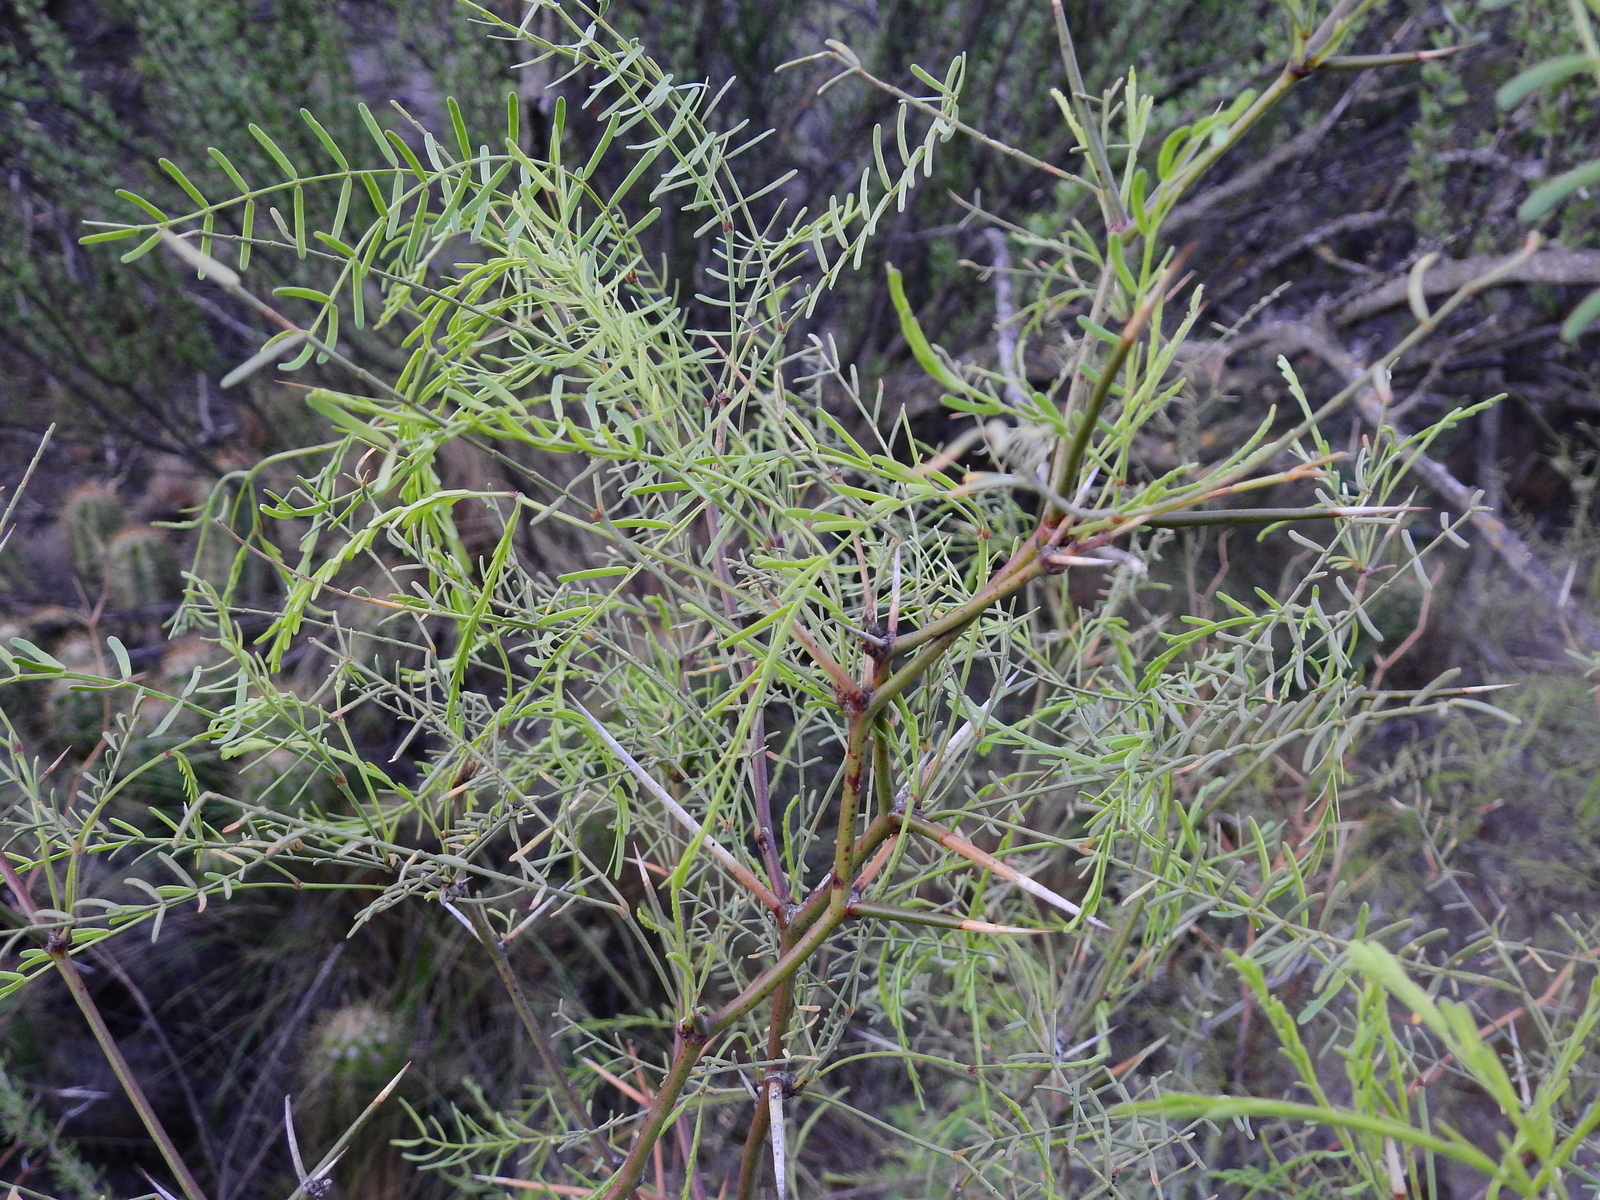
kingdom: Plantae
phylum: Tracheophyta
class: Magnoliopsida
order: Fabales
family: Fabaceae
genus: Prosopis
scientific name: Prosopis flexuosa
